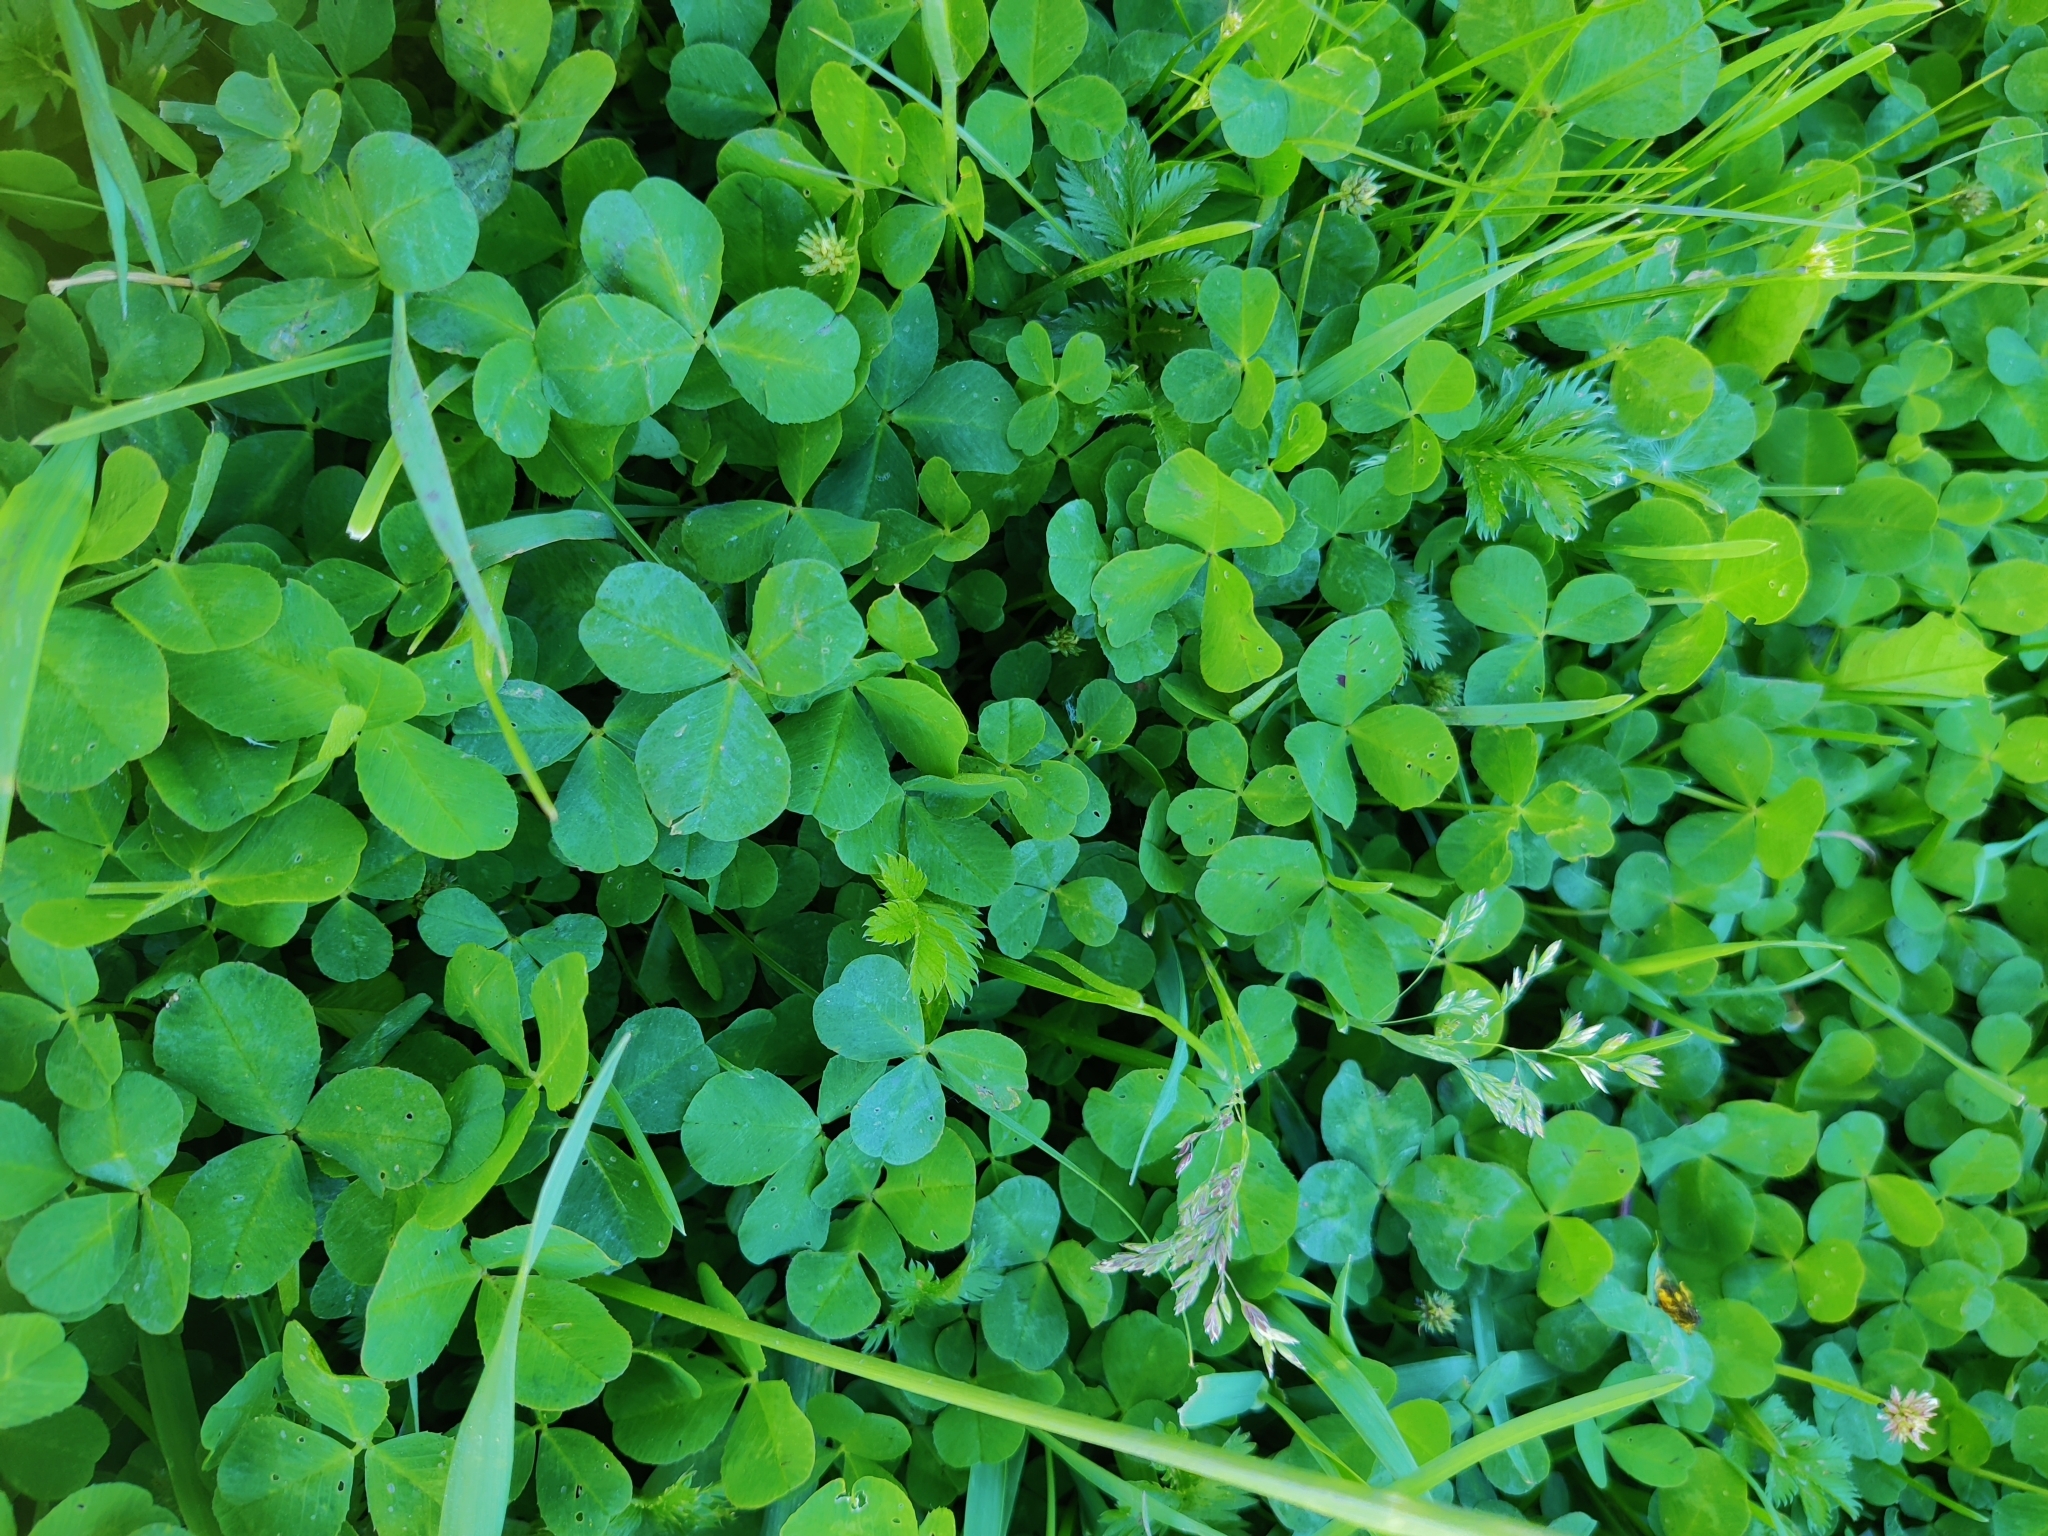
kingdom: Plantae
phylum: Tracheophyta
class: Magnoliopsida
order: Fabales
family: Fabaceae
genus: Trifolium
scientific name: Trifolium repens
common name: White clover
